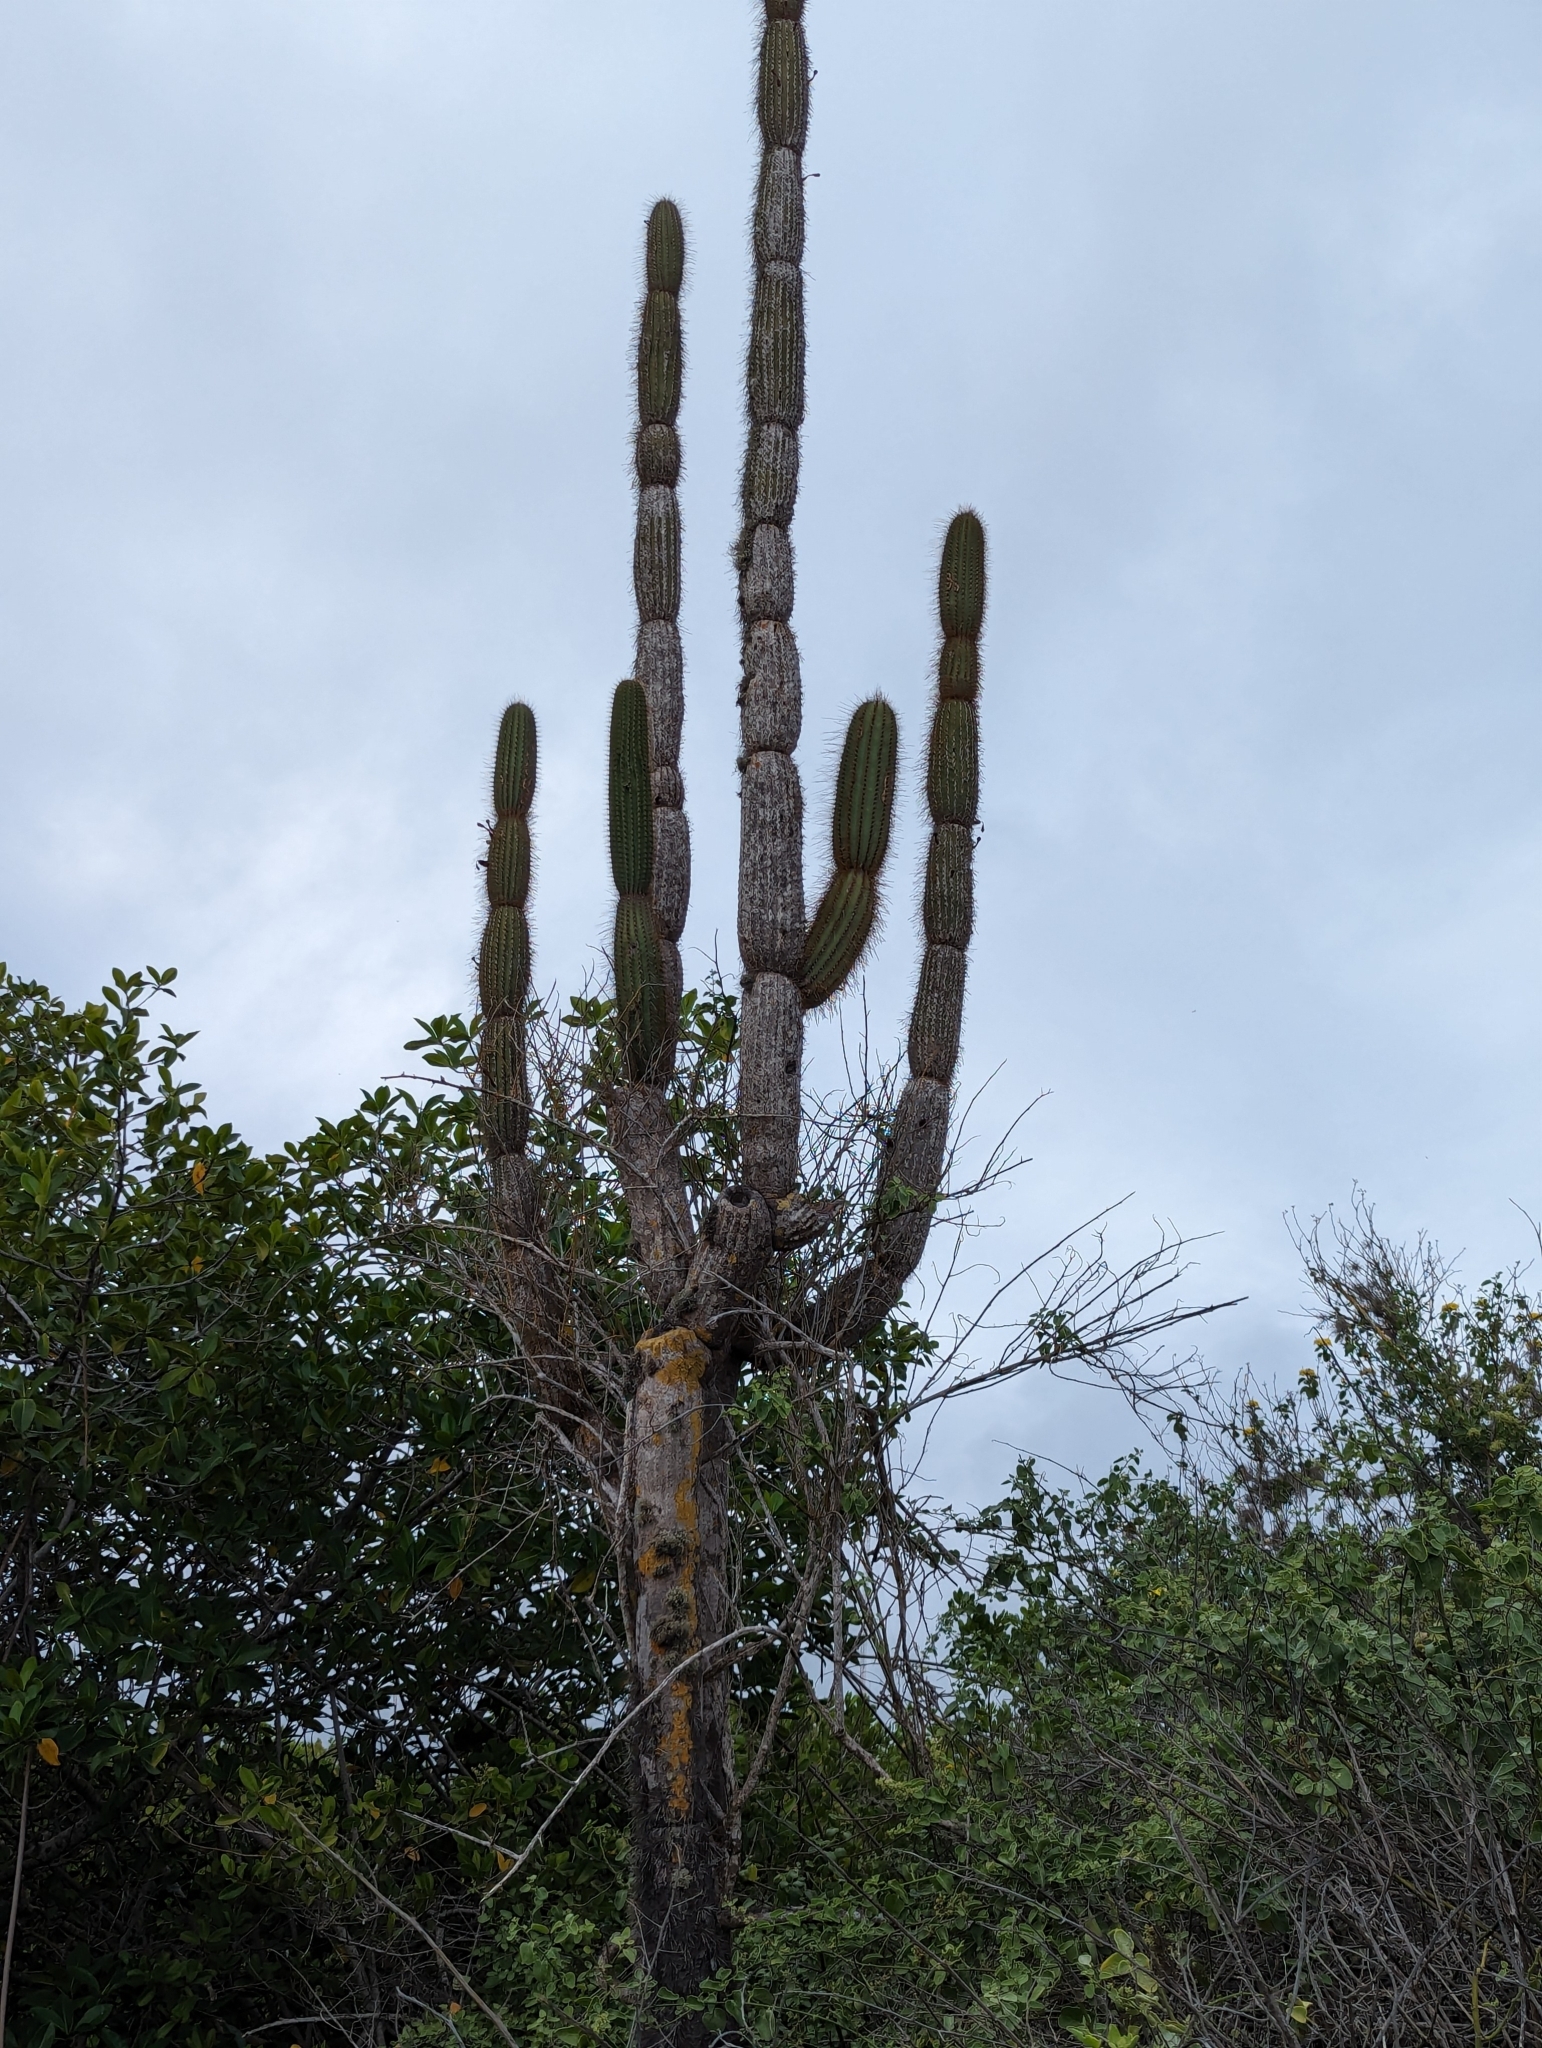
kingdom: Plantae
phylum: Tracheophyta
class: Magnoliopsida
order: Caryophyllales
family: Cactaceae
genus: Jasminocereus
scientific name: Jasminocereus thouarsii
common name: Candelabra cactus
